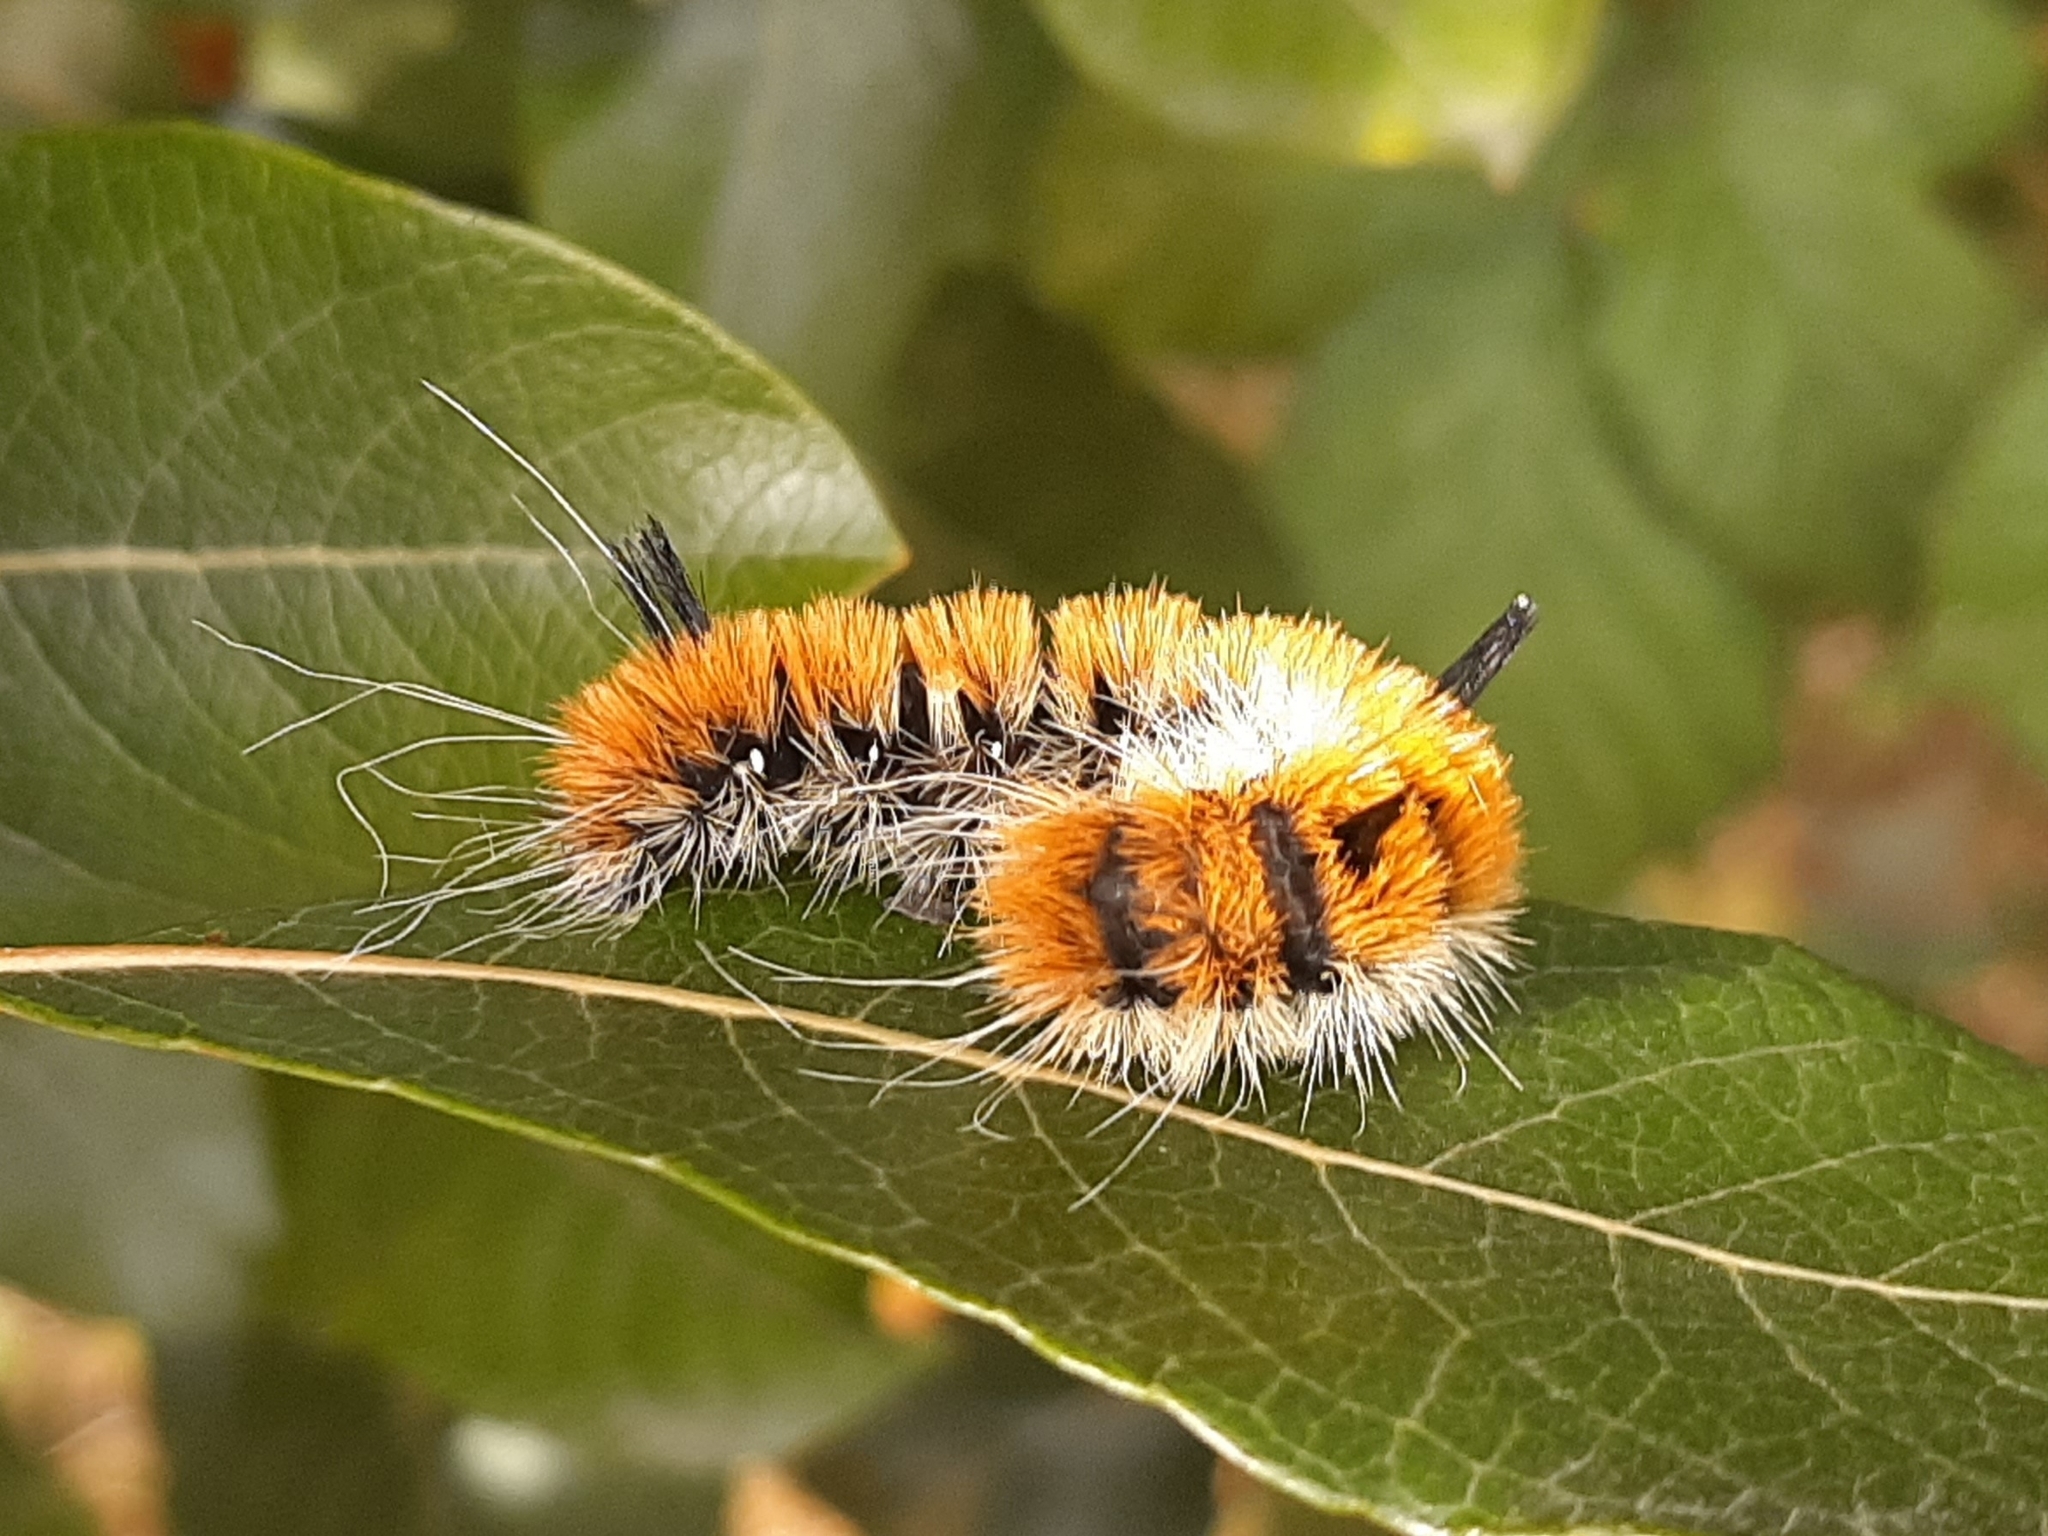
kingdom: Animalia
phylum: Arthropoda
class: Insecta
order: Lepidoptera
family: Noctuidae
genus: Acronicta
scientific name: Acronicta insita
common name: Large gray dagger
